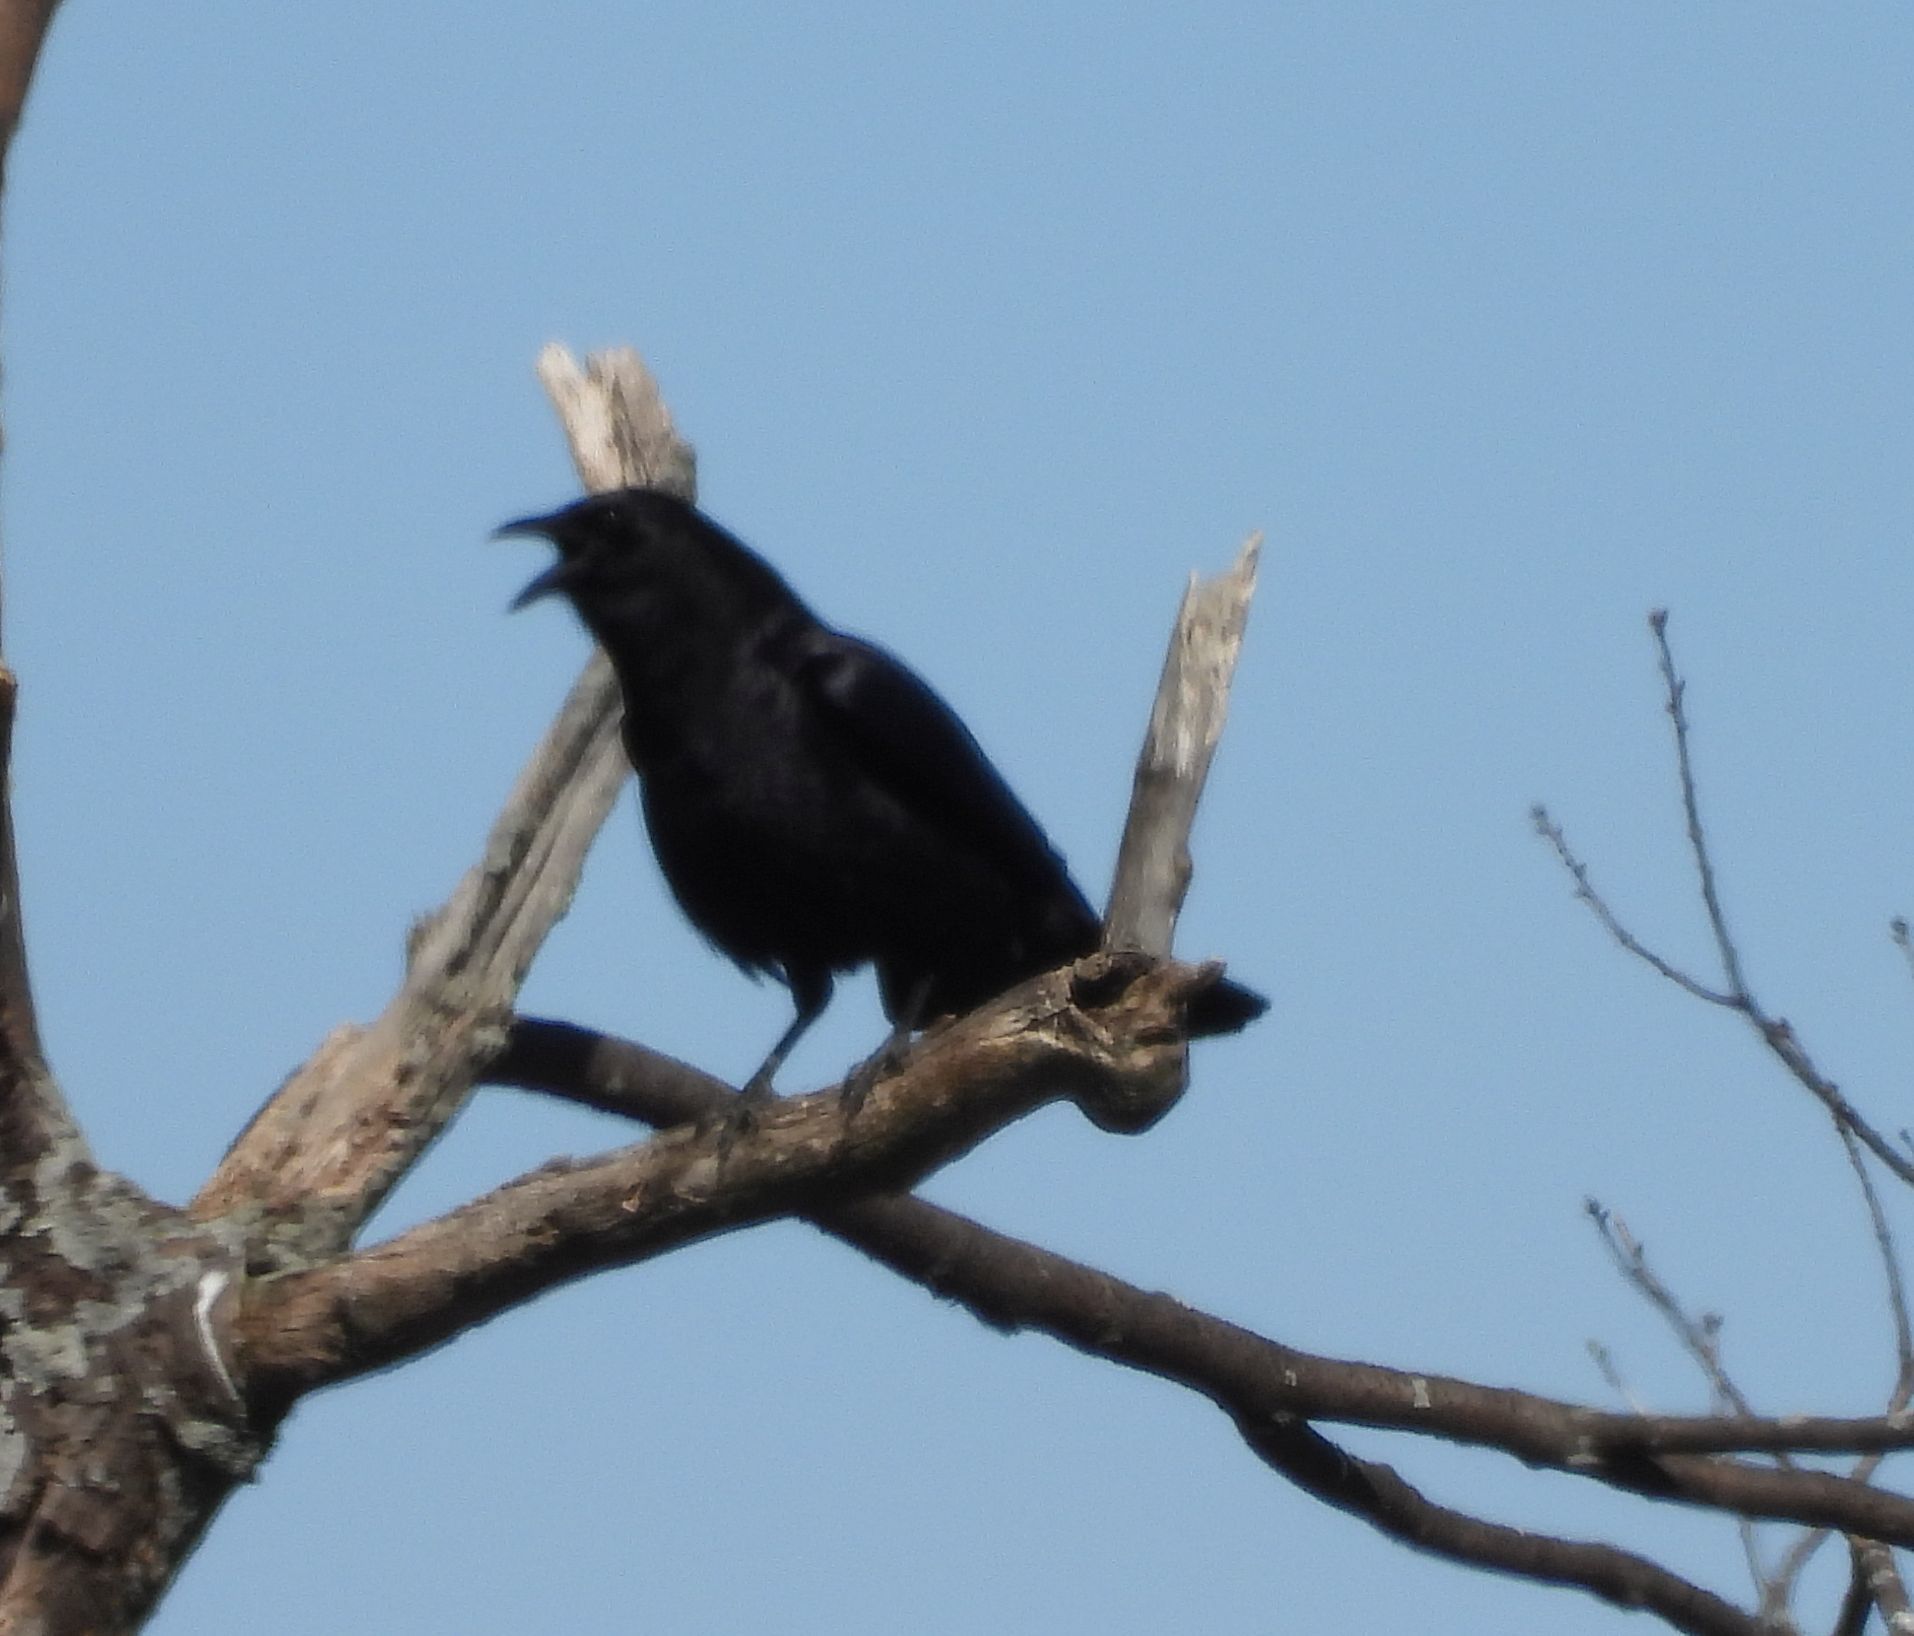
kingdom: Animalia
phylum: Chordata
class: Aves
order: Passeriformes
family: Corvidae
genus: Corvus
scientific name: Corvus brachyrhynchos
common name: American crow
